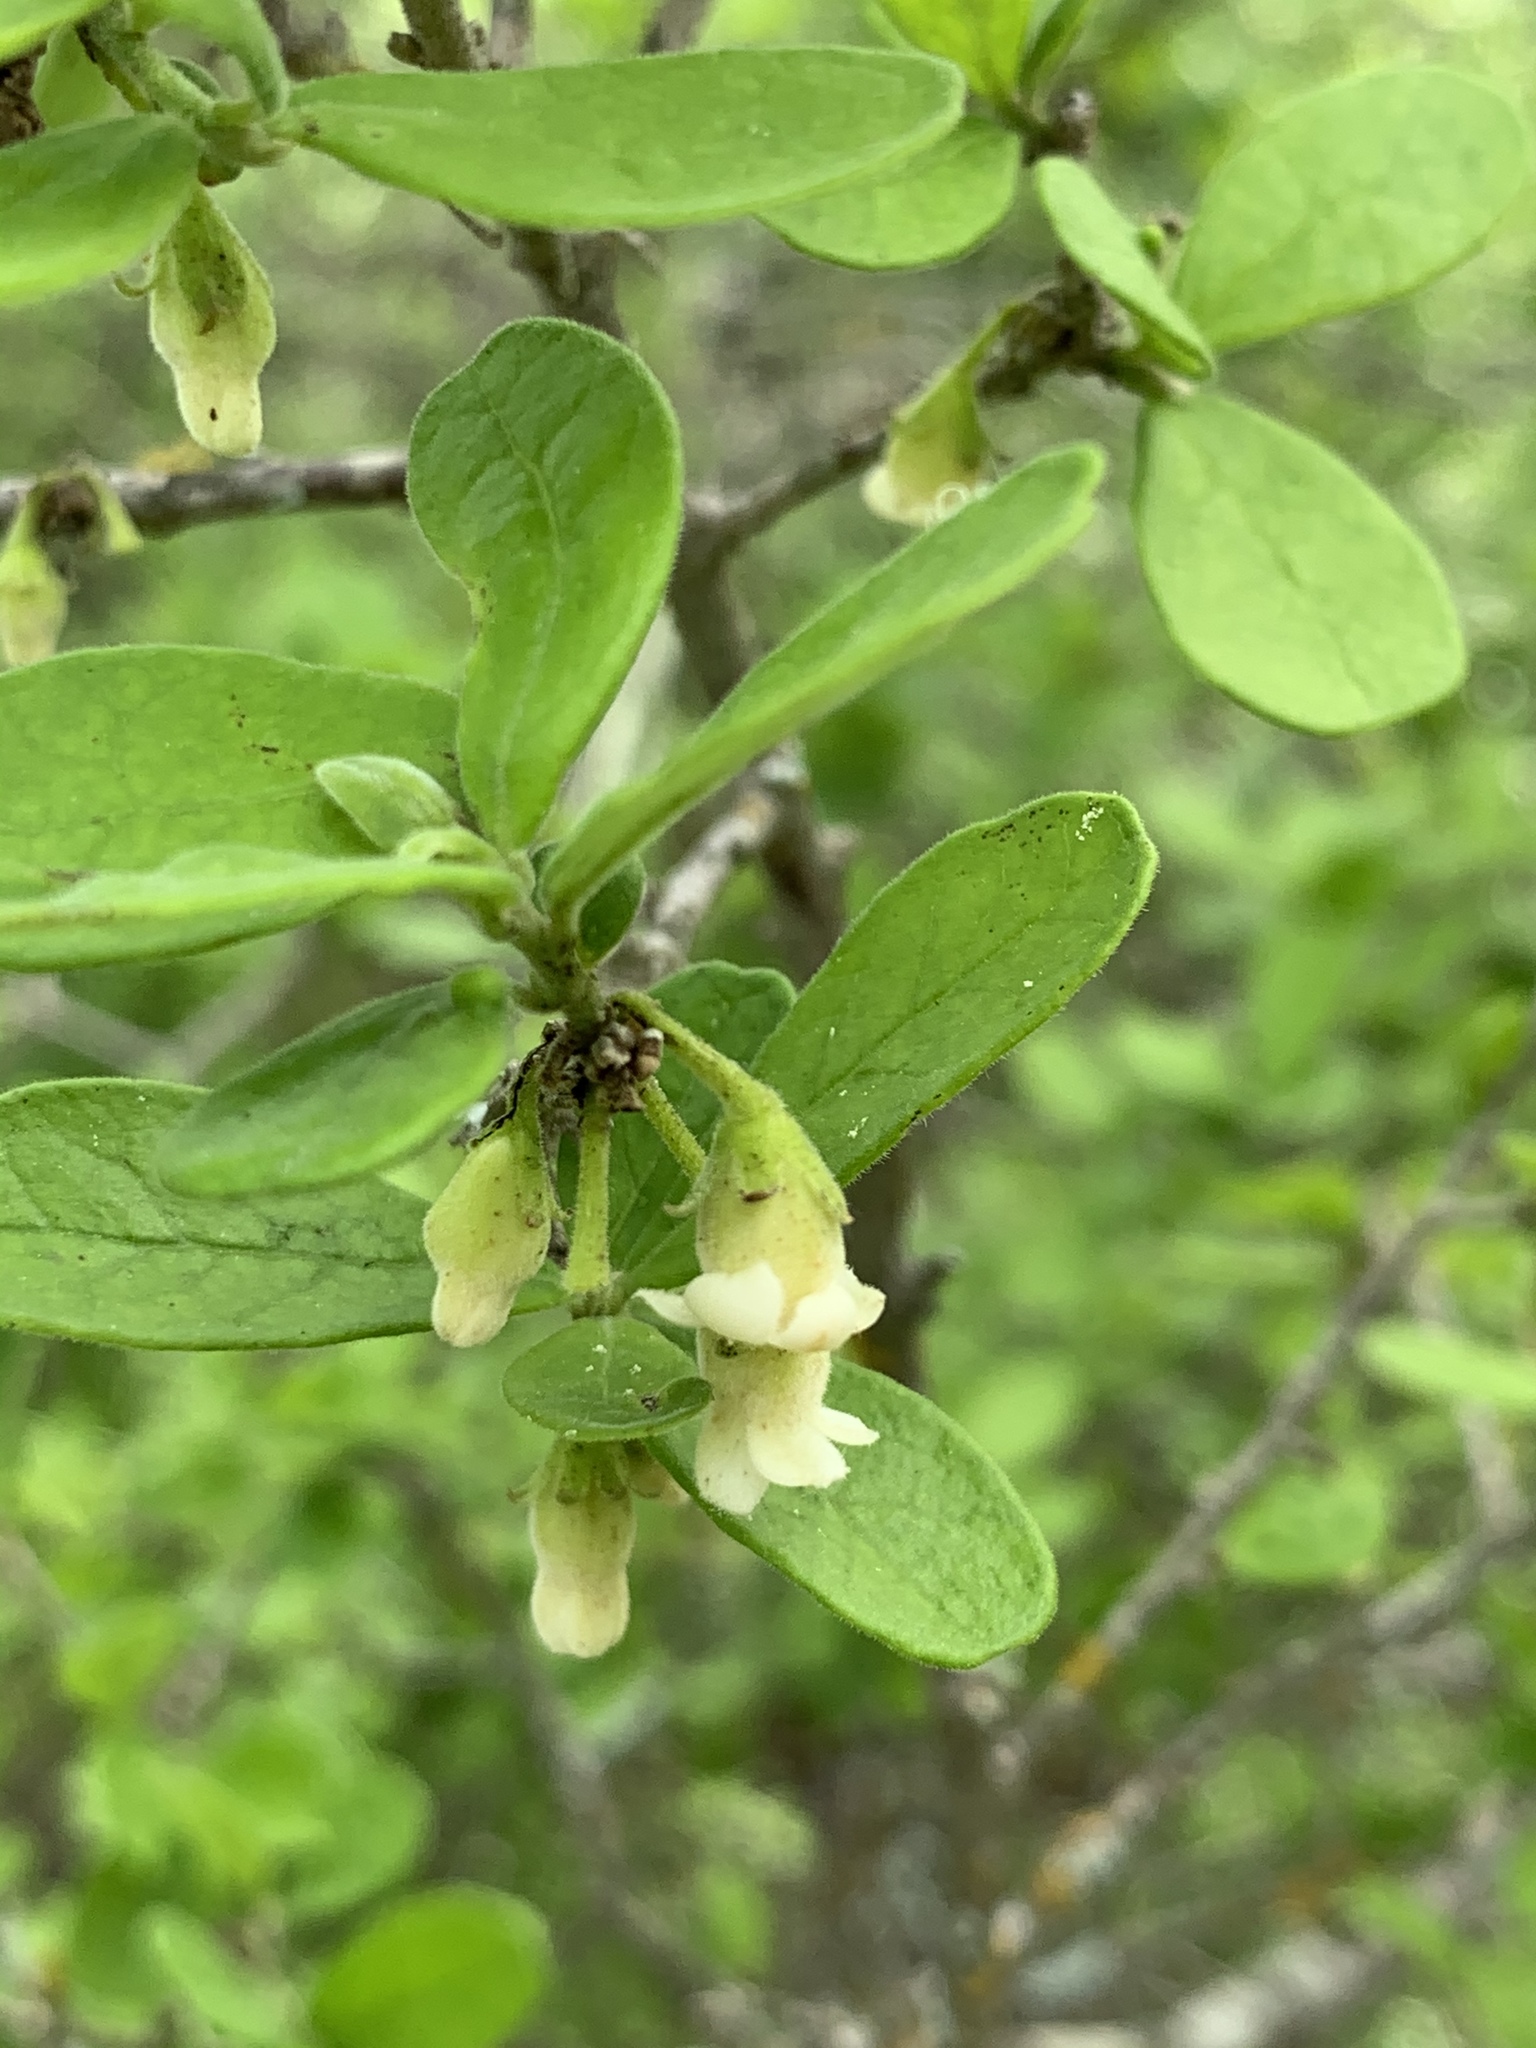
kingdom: Plantae
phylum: Tracheophyta
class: Magnoliopsida
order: Ericales
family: Ebenaceae
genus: Diospyros
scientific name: Diospyros texana
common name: Texas persimmon
